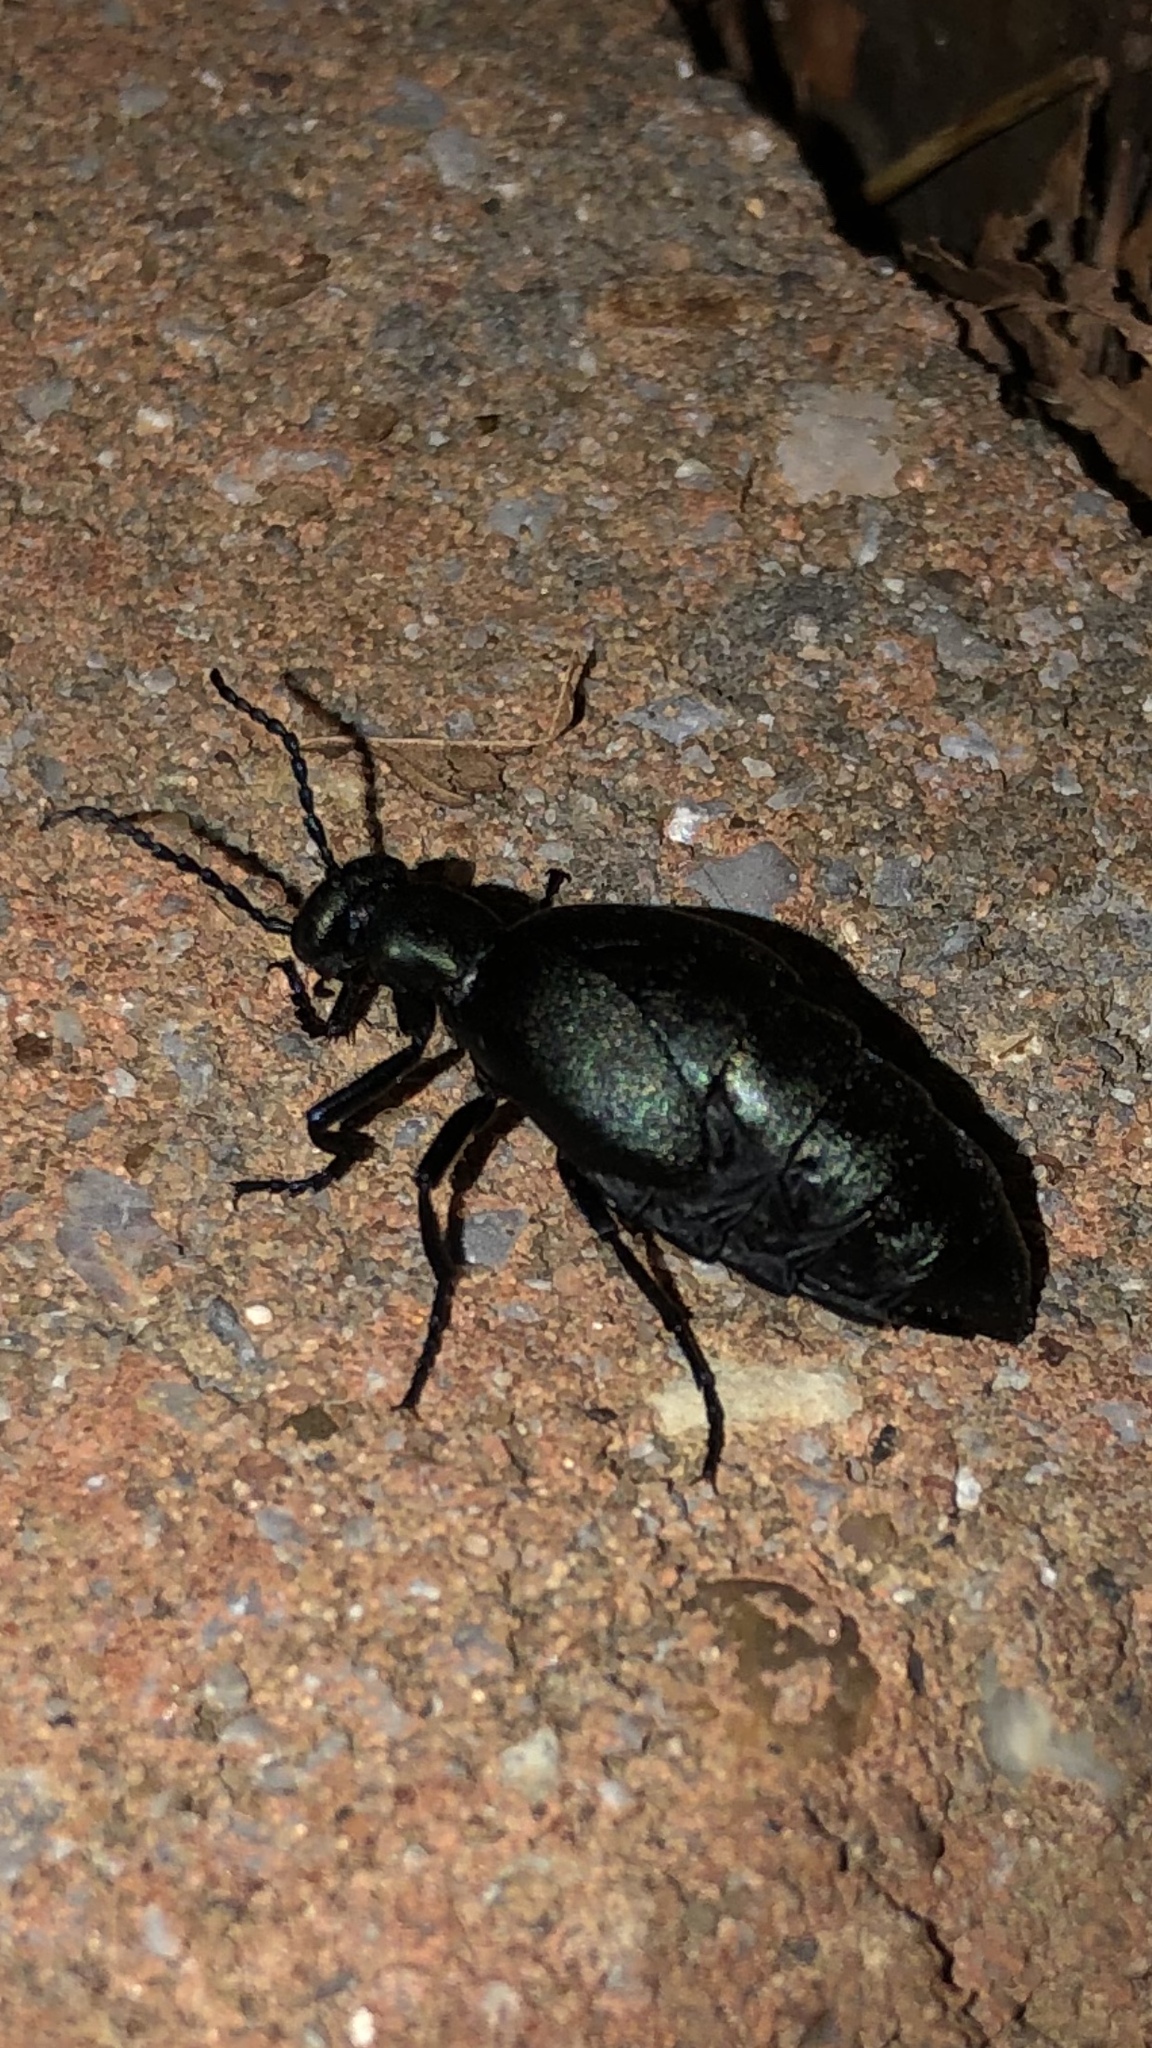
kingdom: Animalia
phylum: Arthropoda
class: Insecta
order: Coleoptera
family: Meloidae
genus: Meloe
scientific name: Meloe americanus
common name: Buttercup oil beetle
